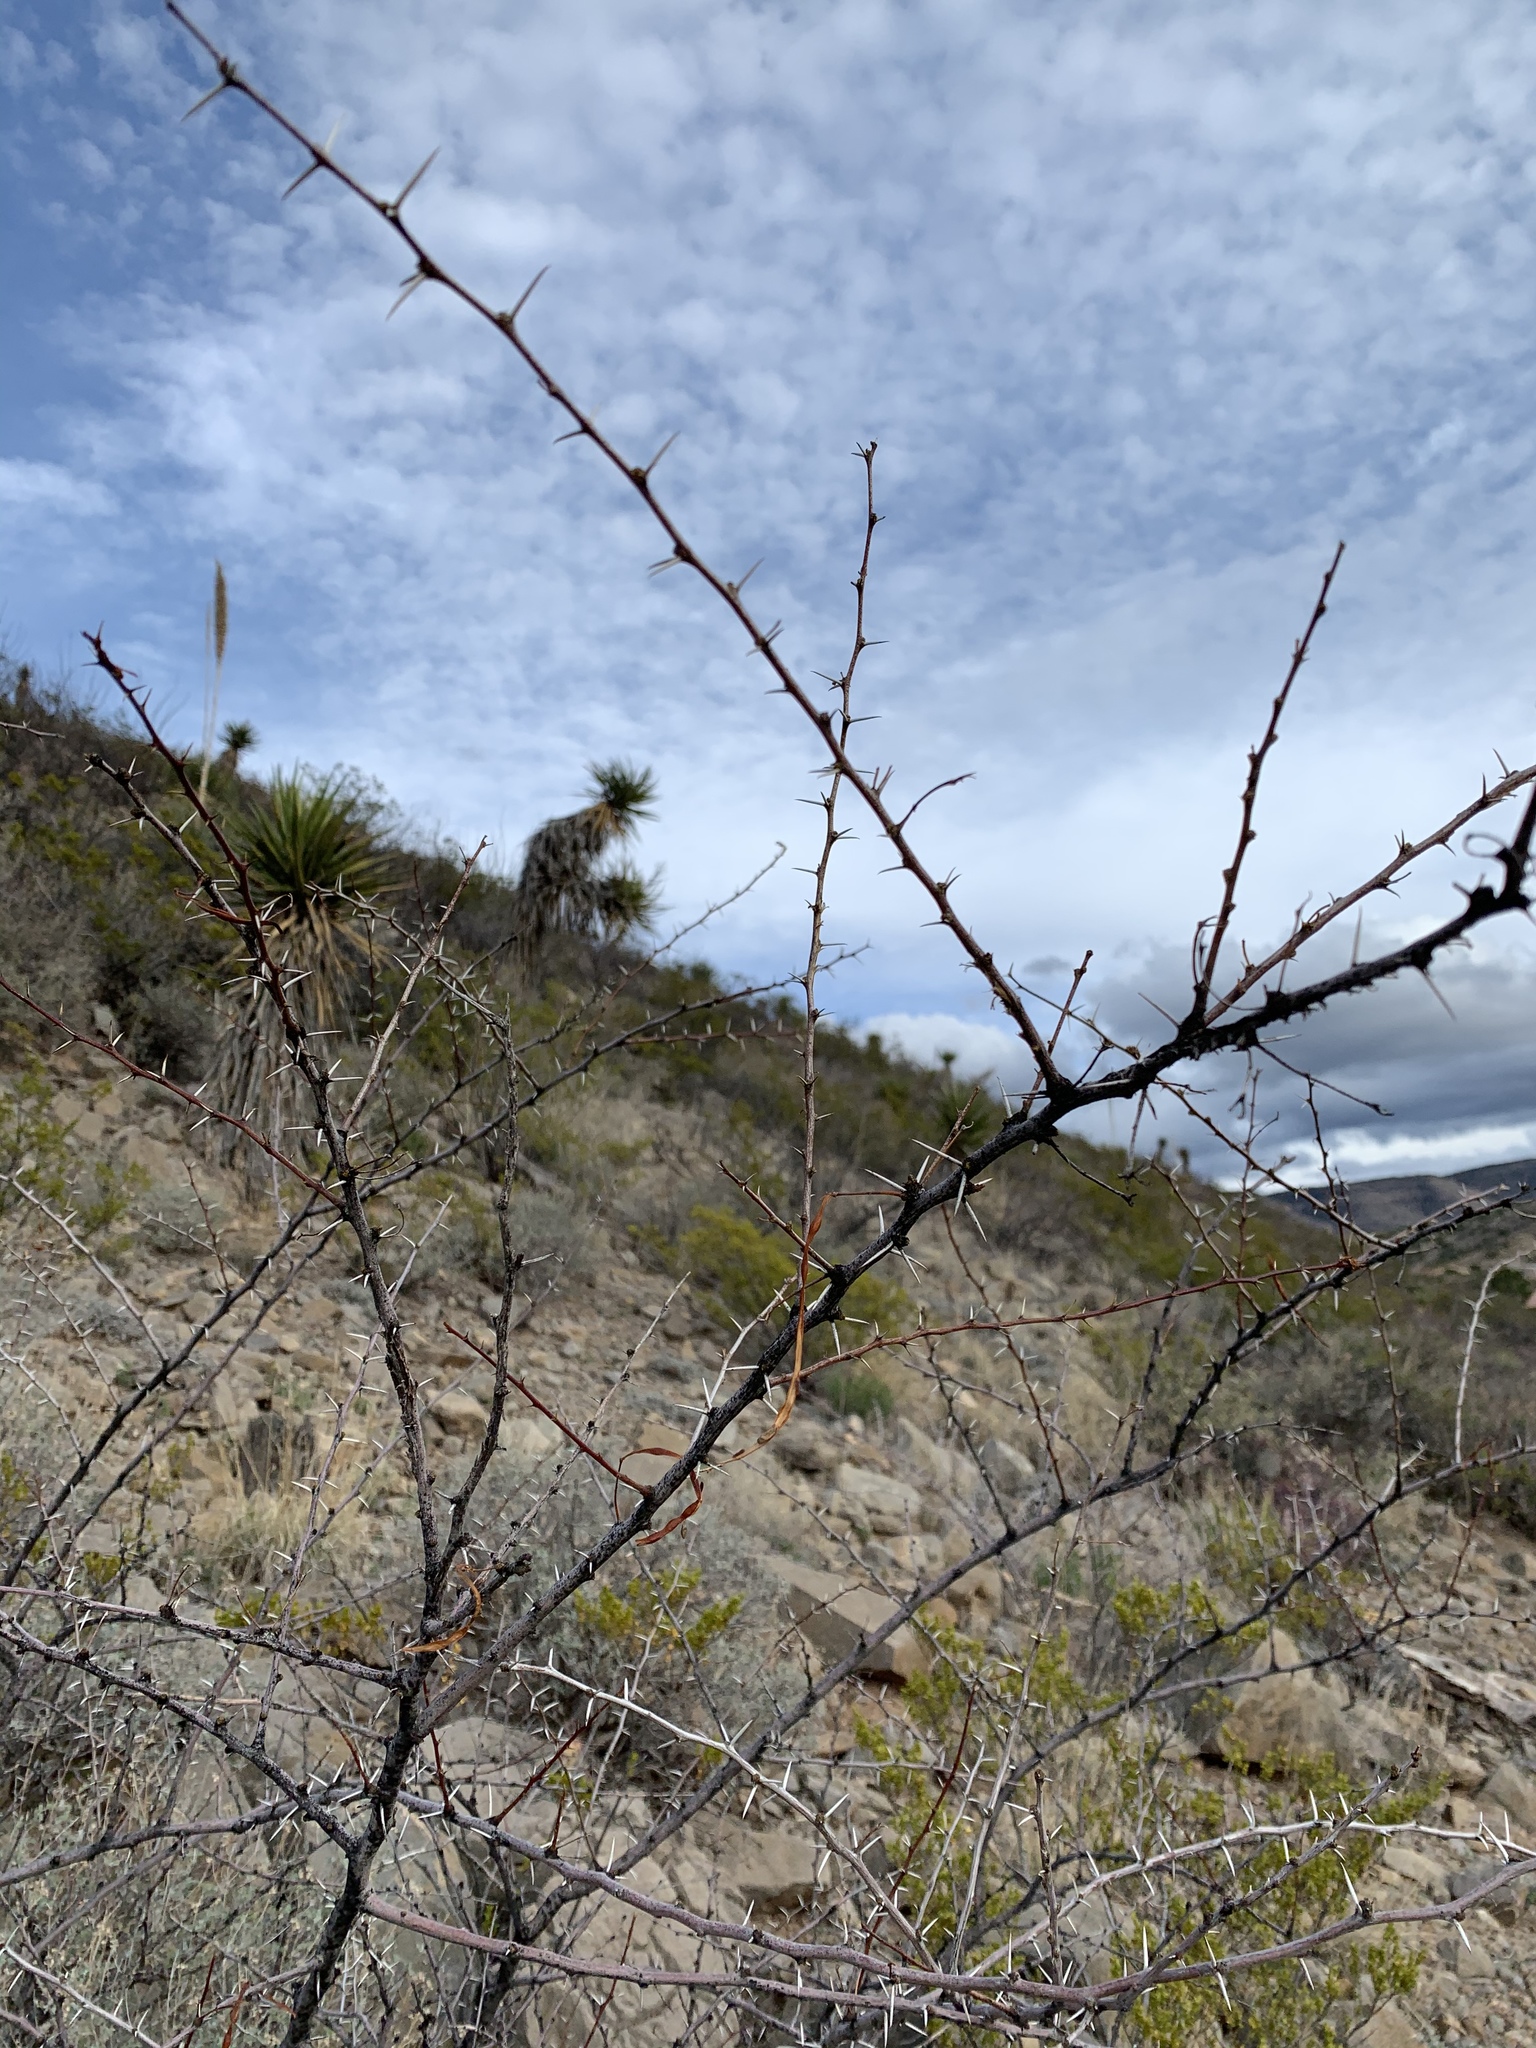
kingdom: Plantae
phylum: Tracheophyta
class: Magnoliopsida
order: Fabales
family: Fabaceae
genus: Vachellia
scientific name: Vachellia constricta
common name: Mescat acacia
